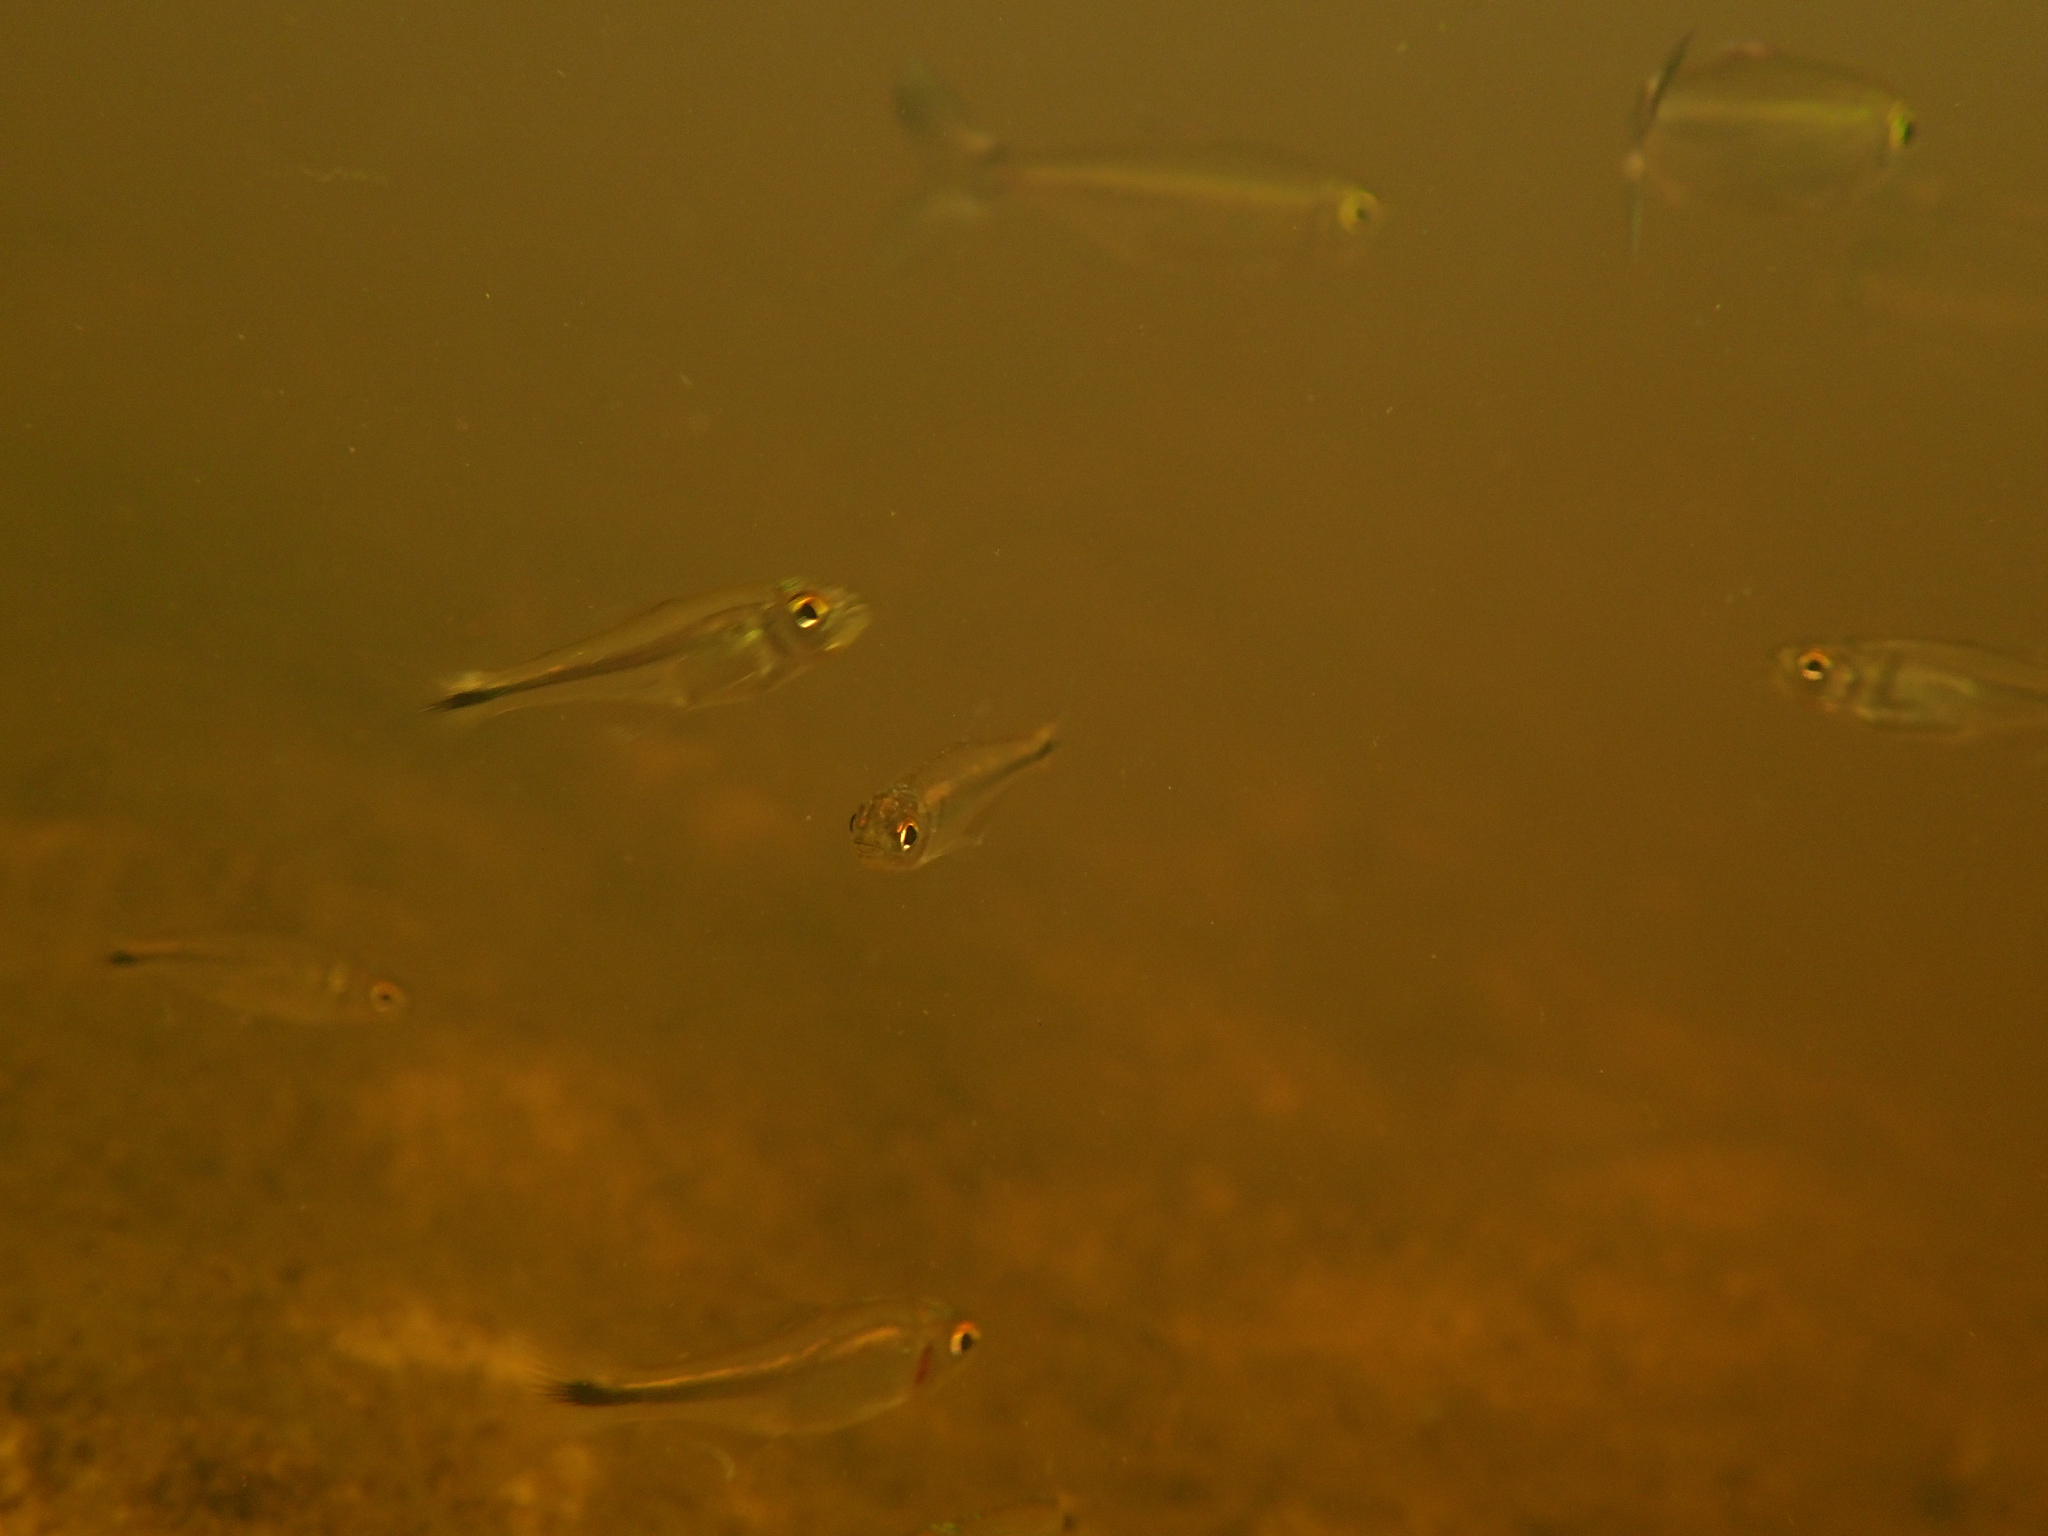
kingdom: Animalia
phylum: Chordata
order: Characiformes
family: Characidae
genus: Bryconamericus
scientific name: Bryconamericus guyanensis
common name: Tetra
